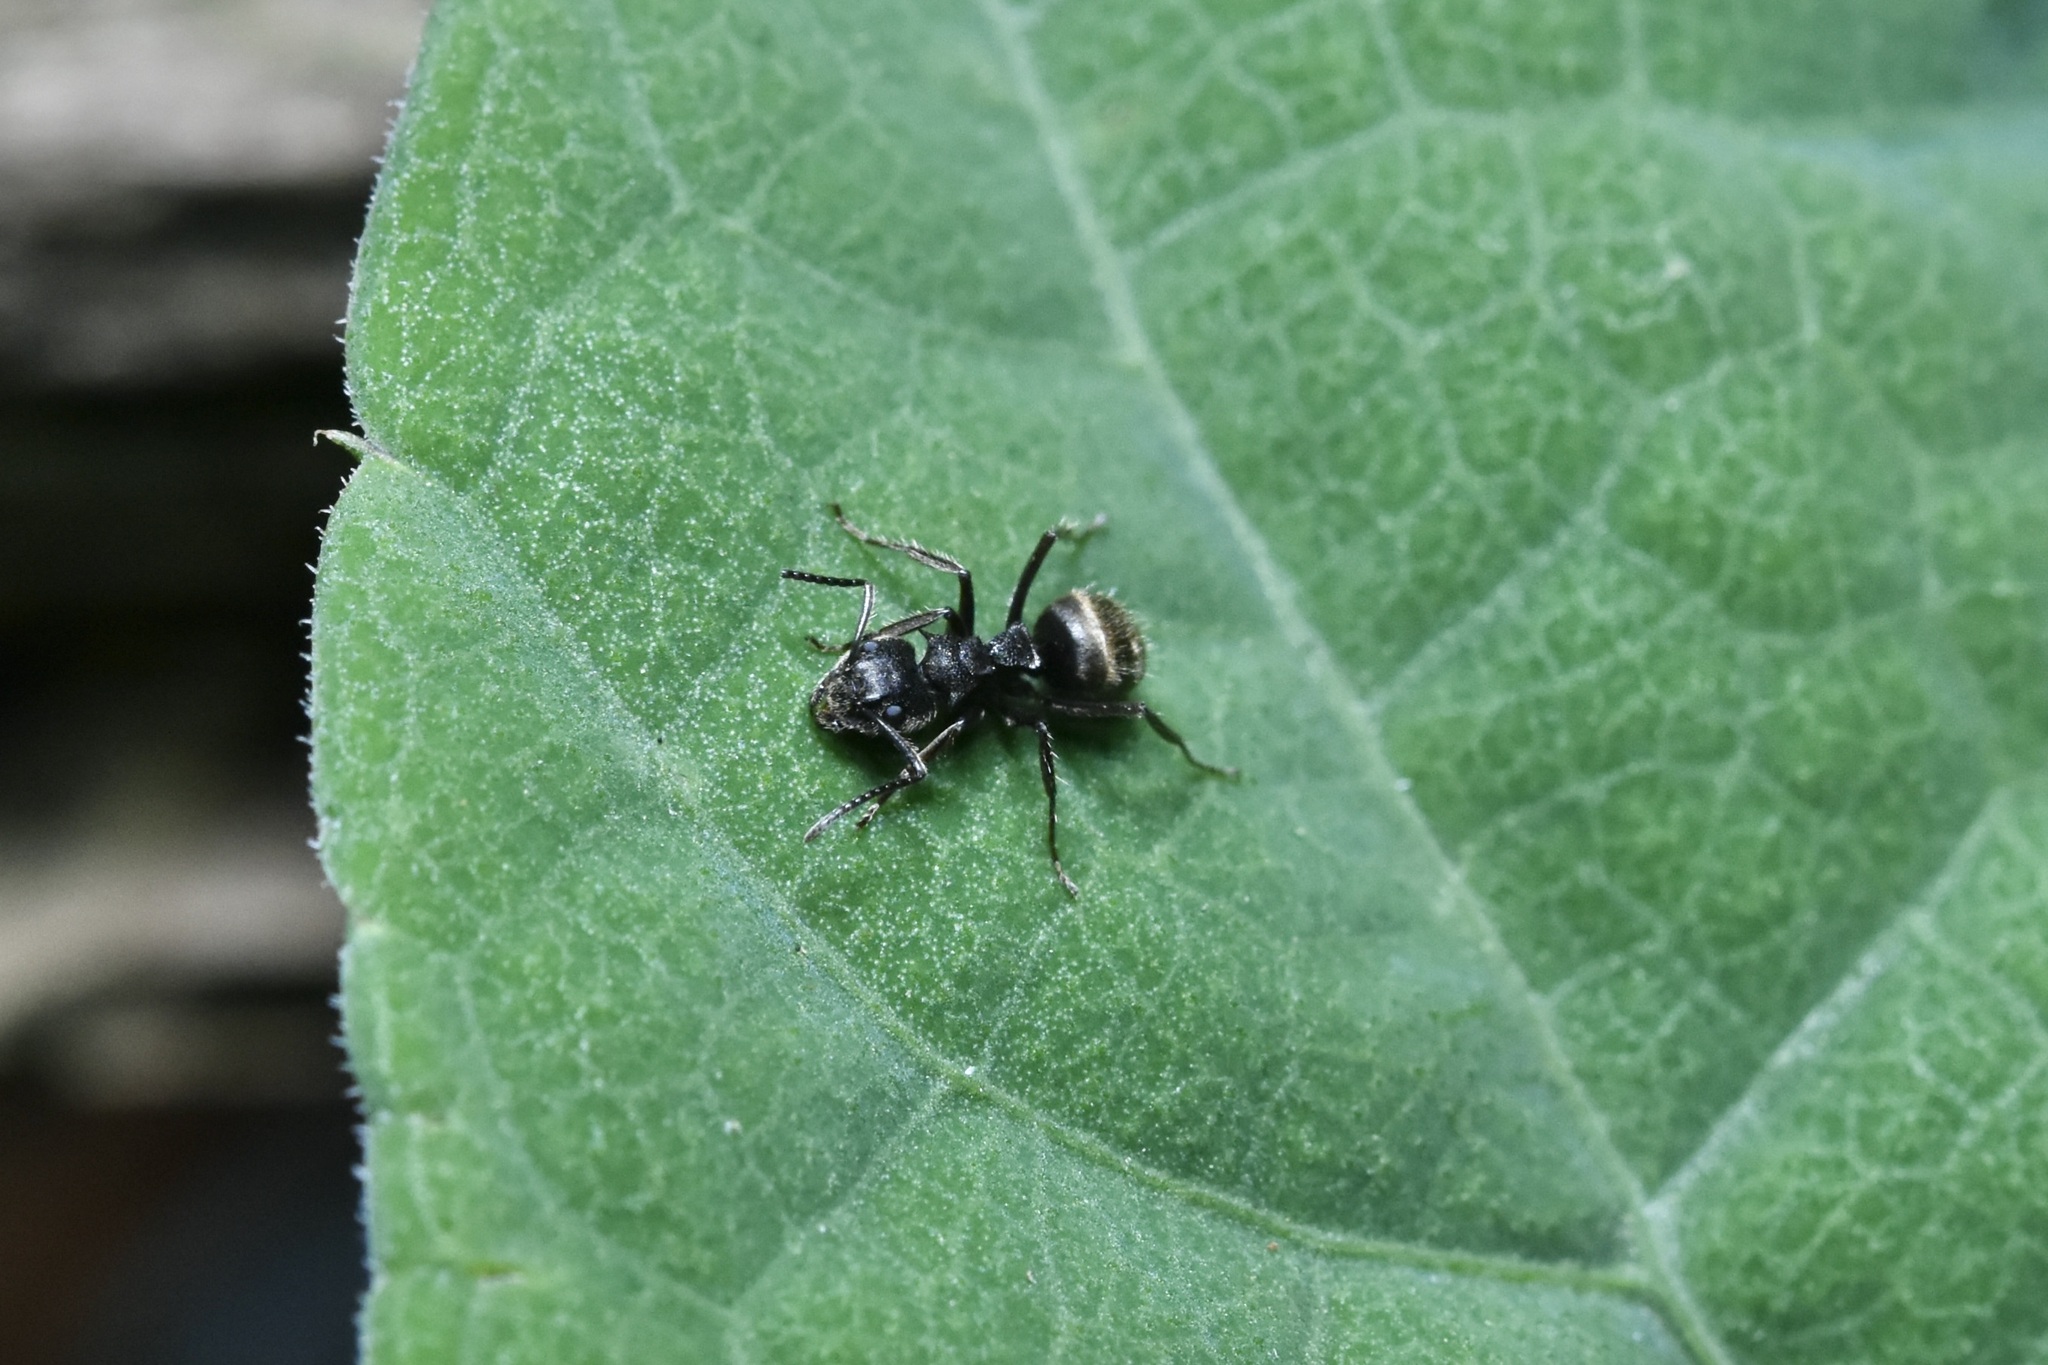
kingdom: Animalia
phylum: Arthropoda
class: Insecta
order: Hymenoptera
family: Formicidae
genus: Dolichoderus
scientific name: Dolichoderus bispinosus
